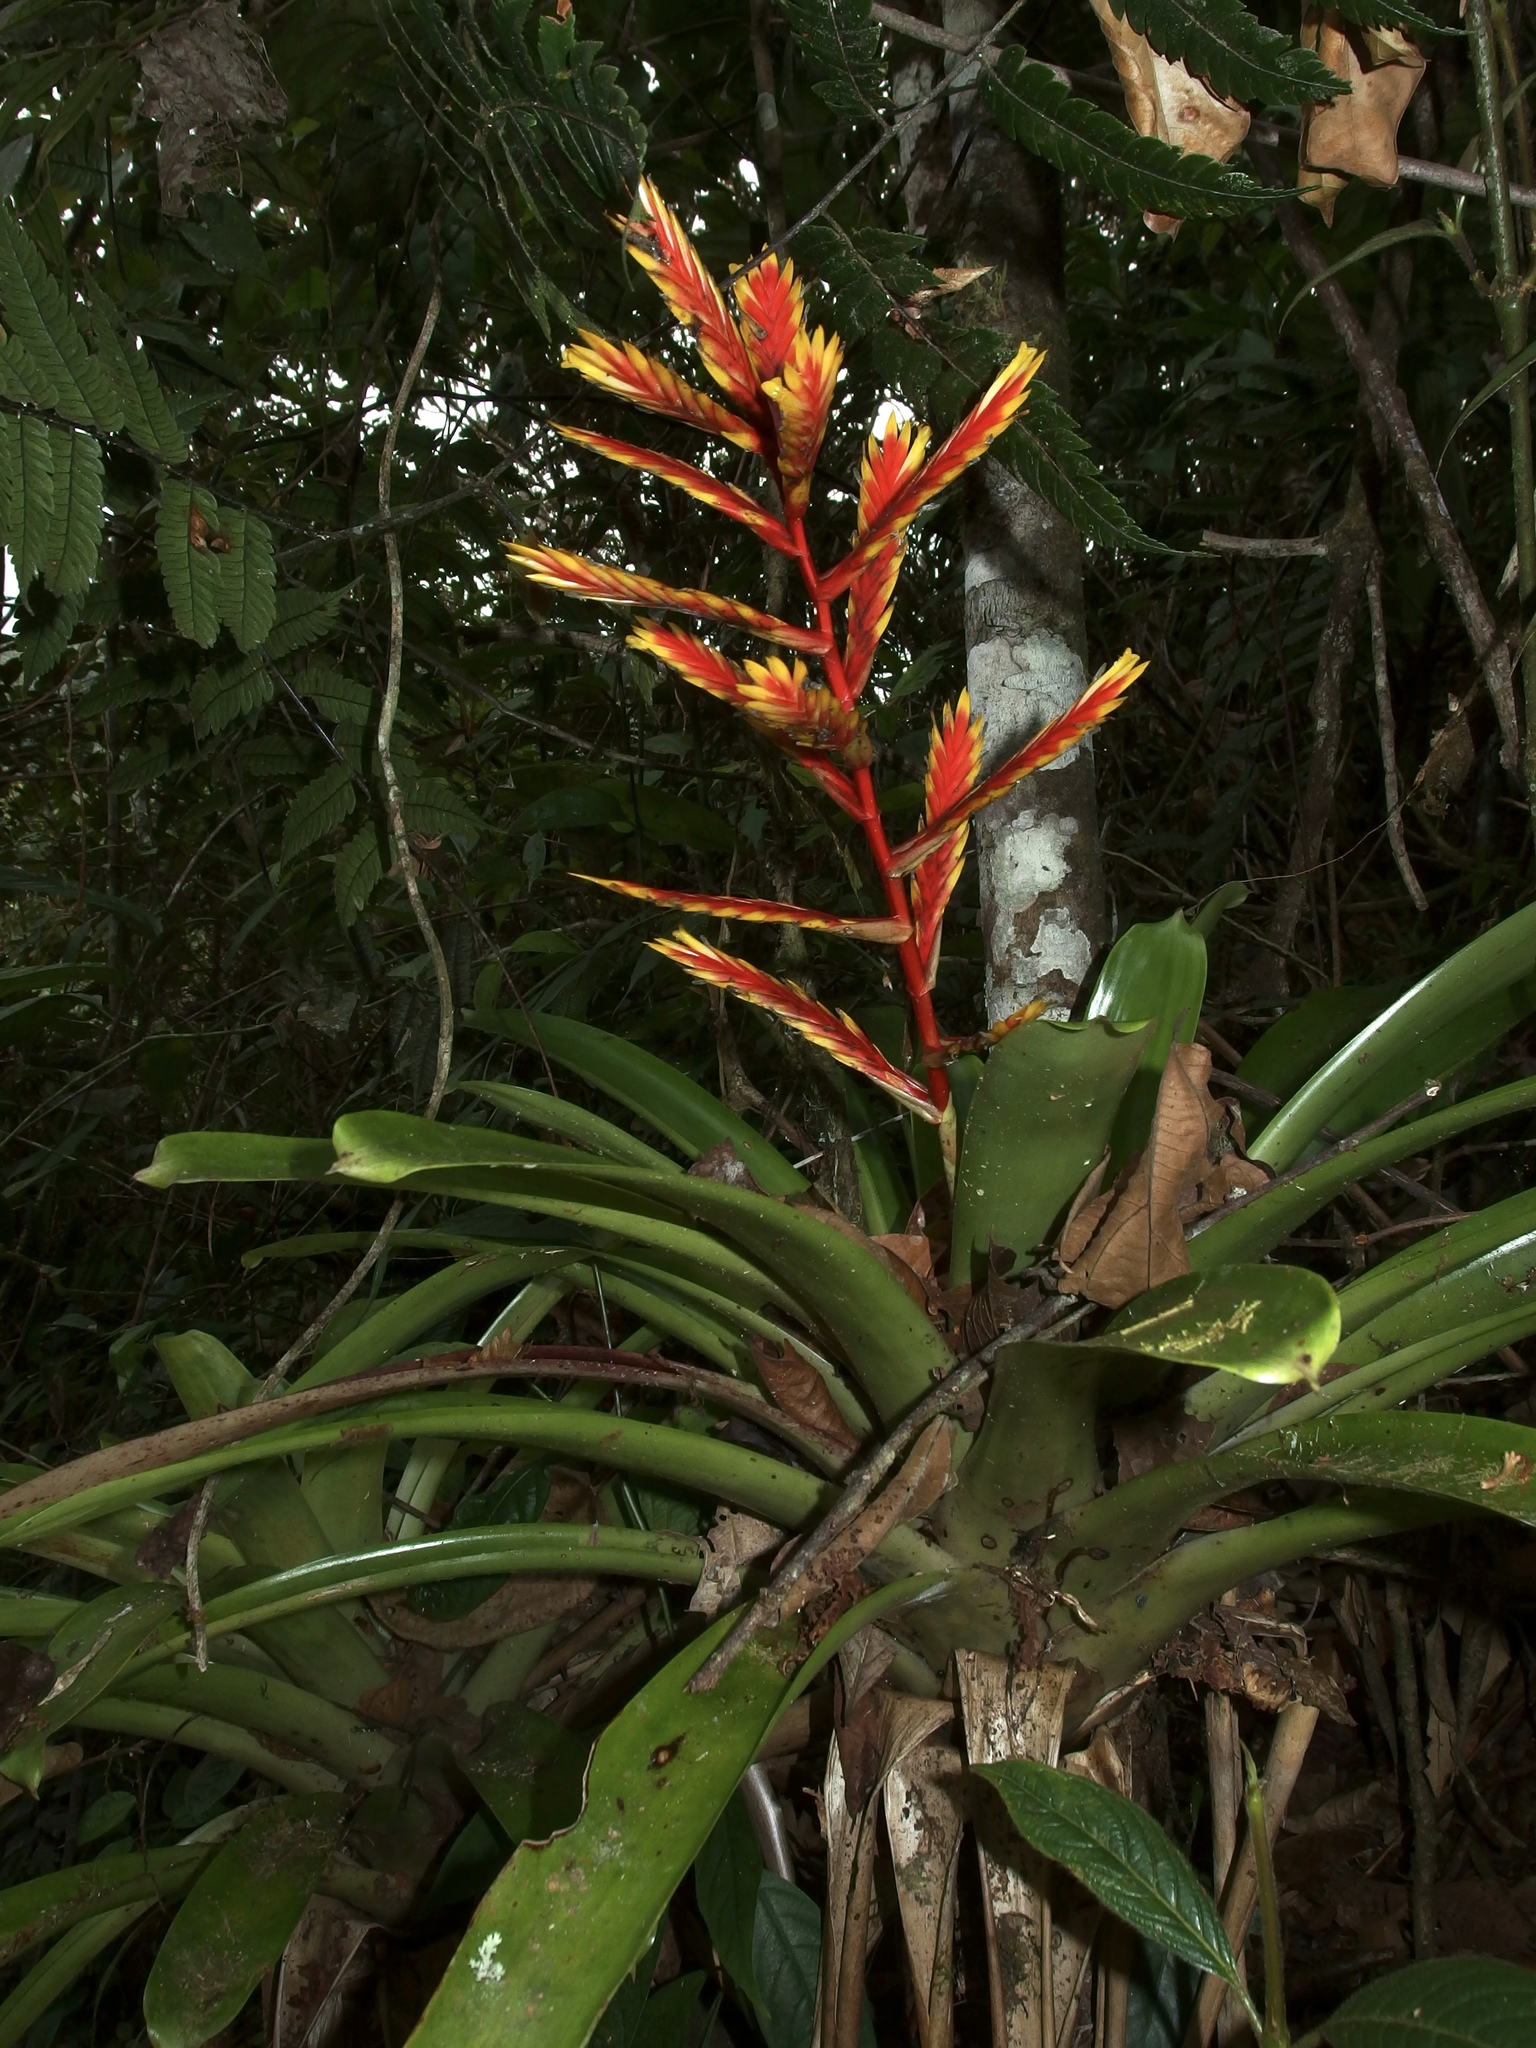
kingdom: Plantae
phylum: Tracheophyta
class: Liliopsida
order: Poales
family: Bromeliaceae
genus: Vriesea
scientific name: Vriesea zamorensis
